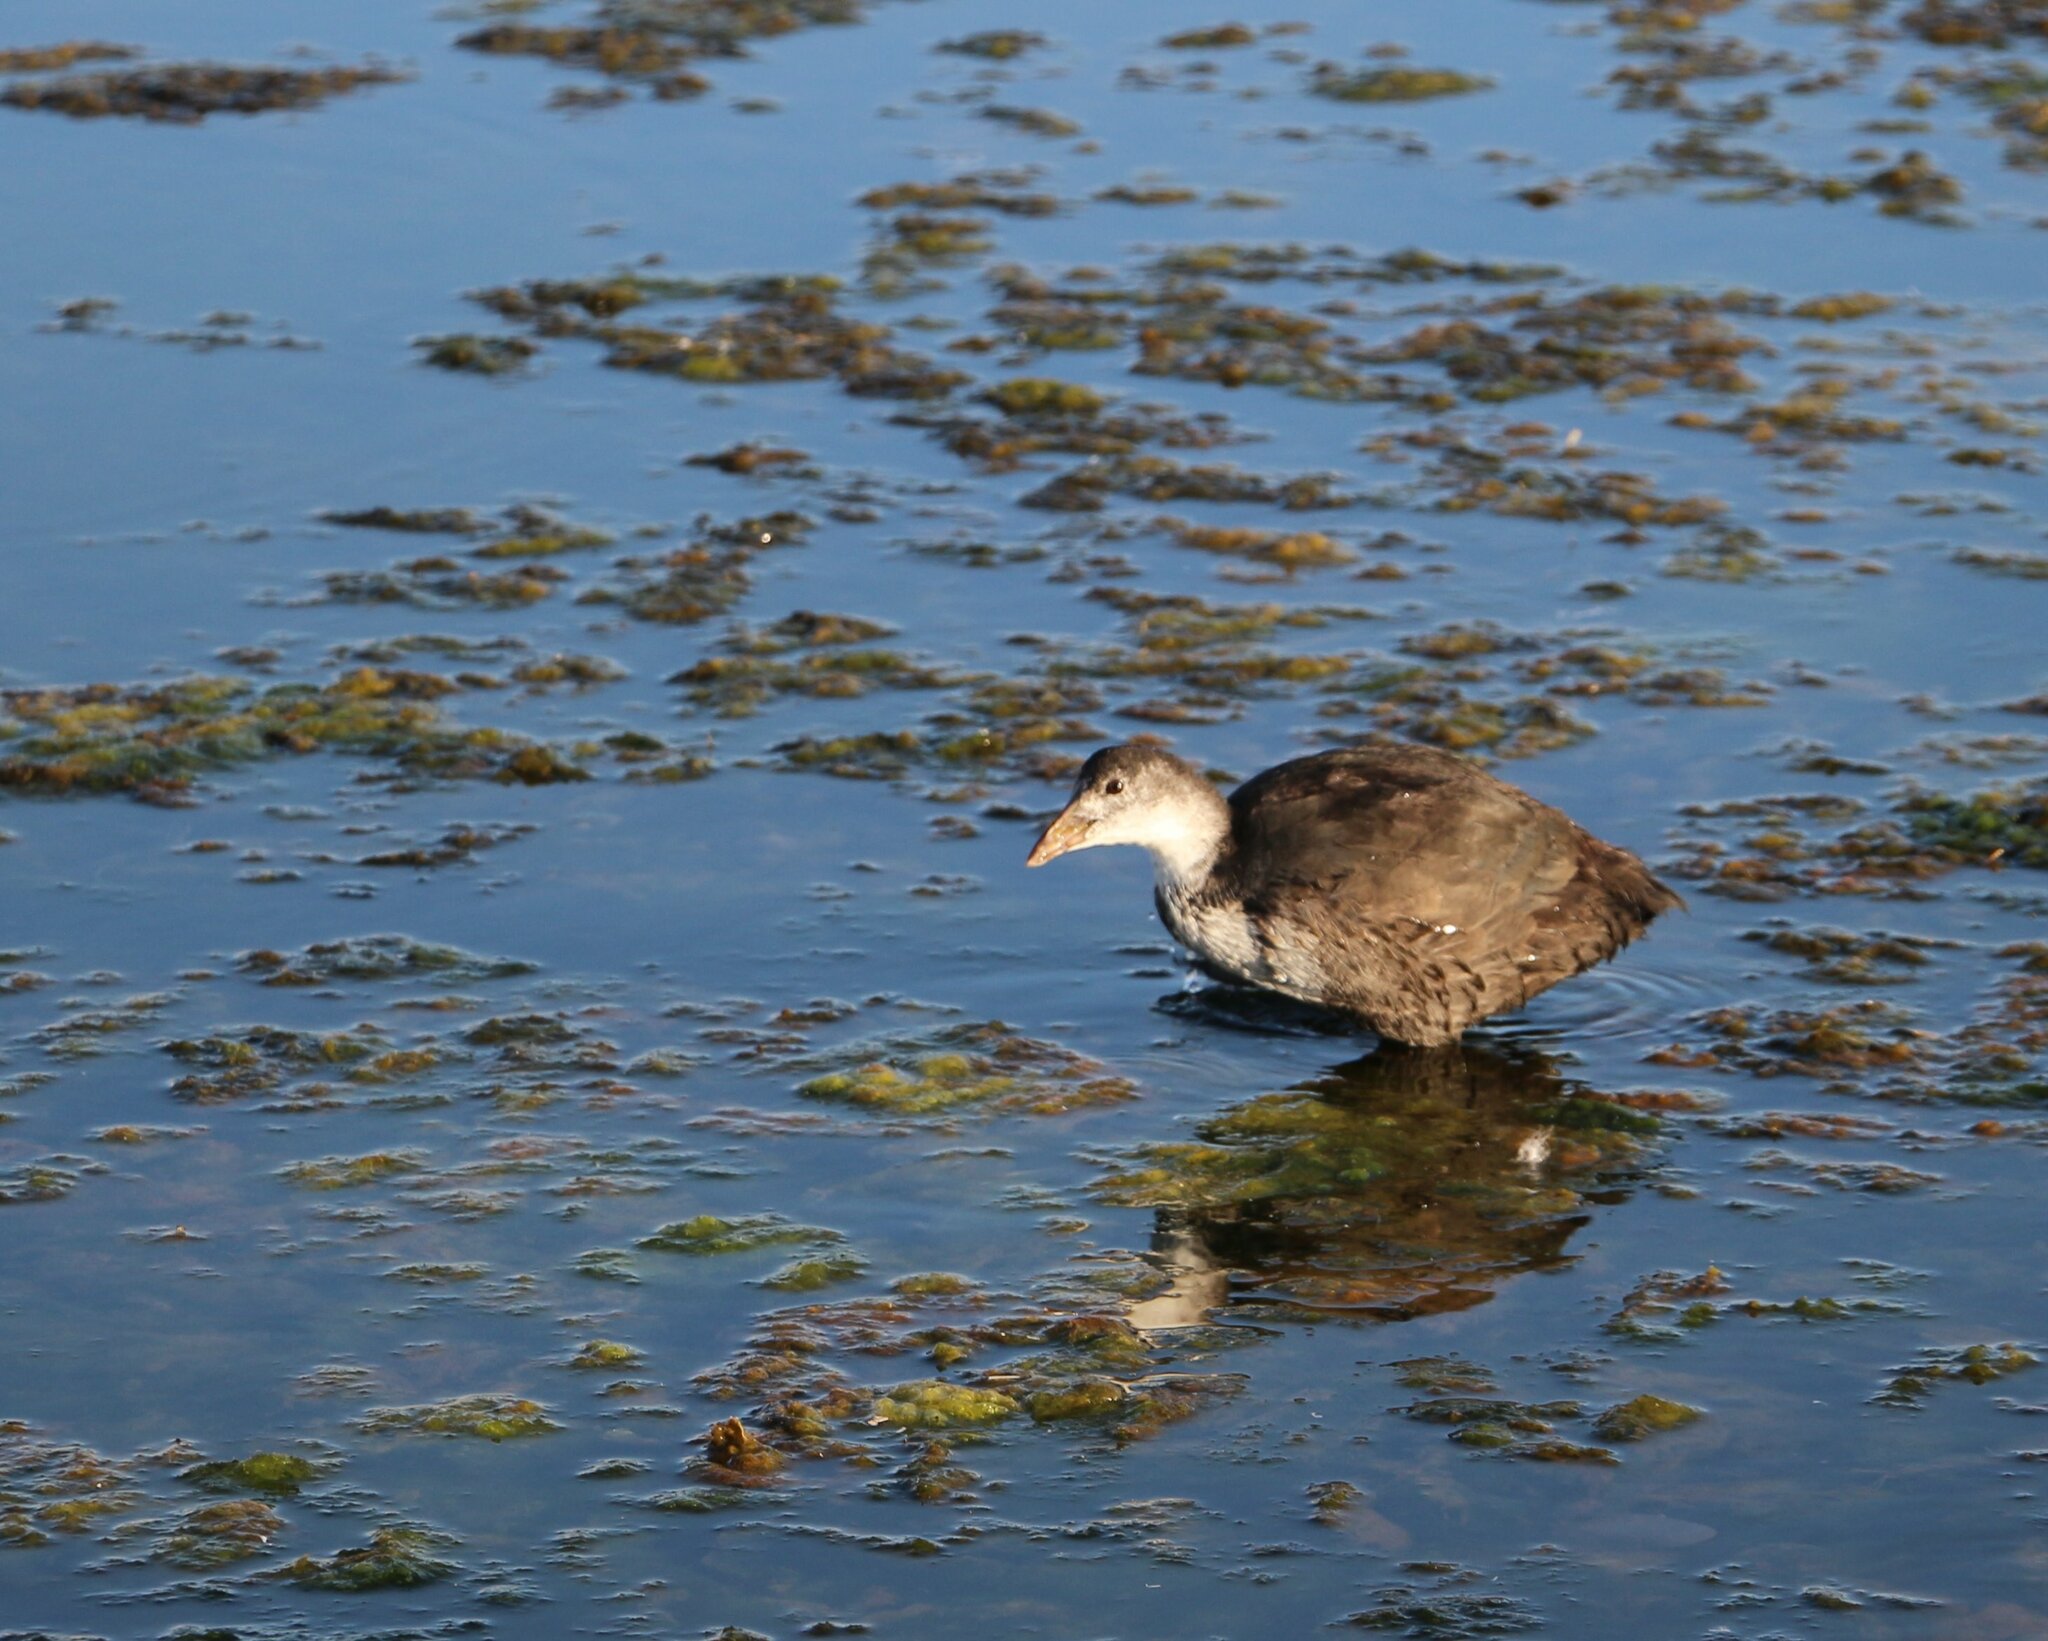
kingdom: Animalia
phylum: Chordata
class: Aves
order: Gruiformes
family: Rallidae
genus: Fulica
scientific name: Fulica atra
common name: Eurasian coot
